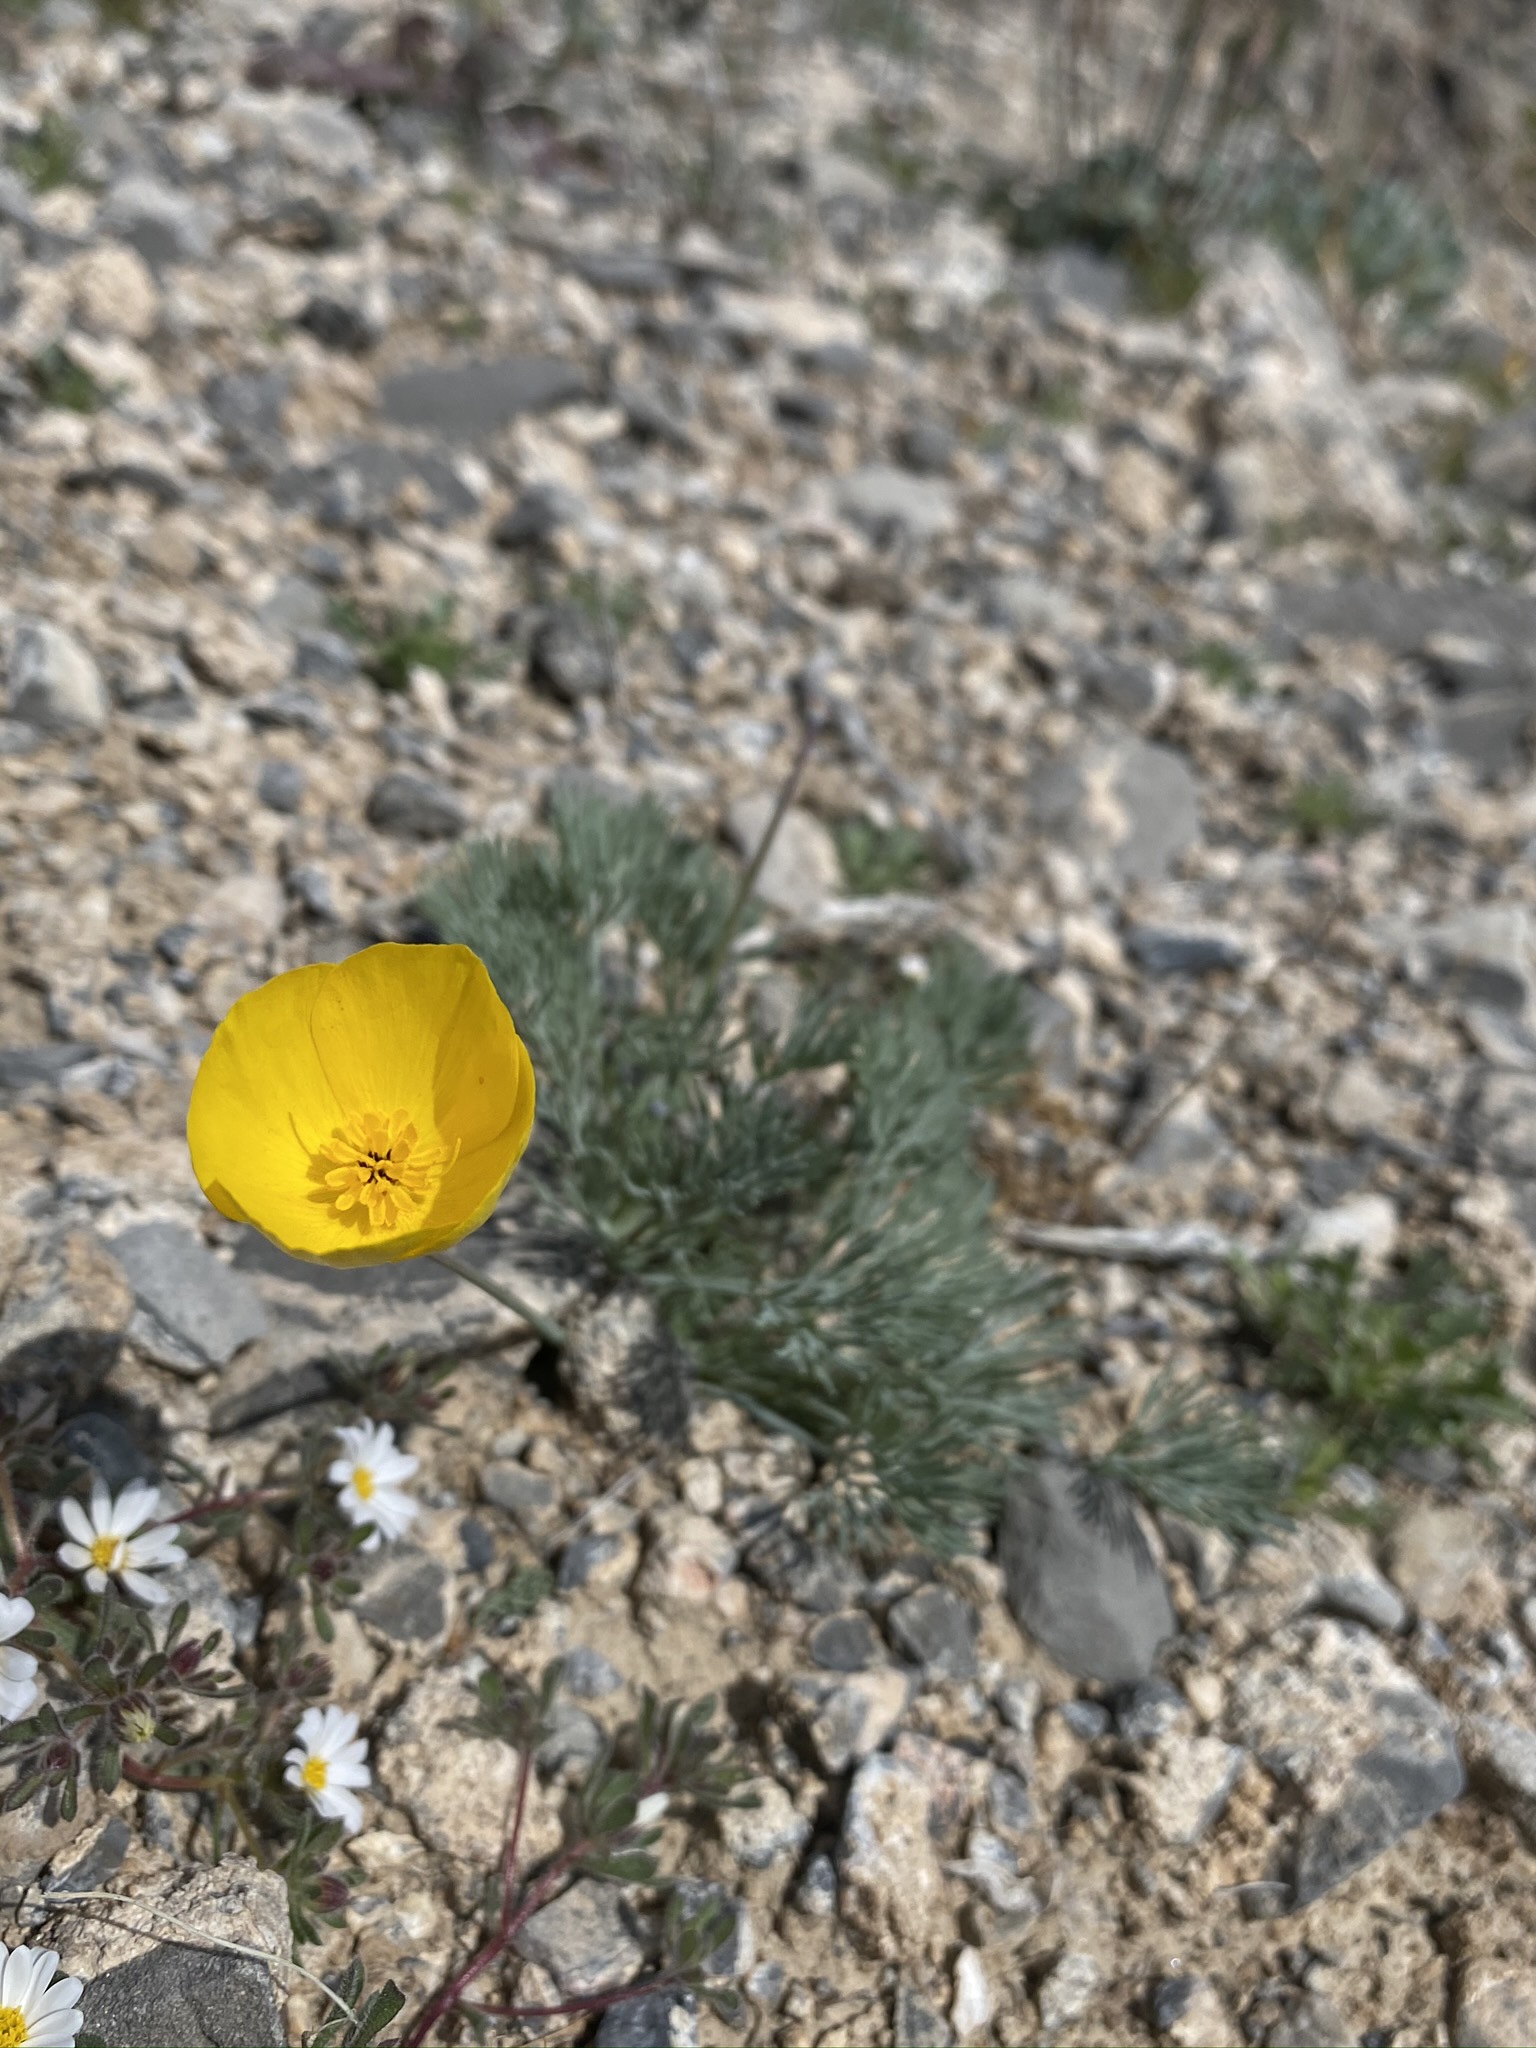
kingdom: Plantae
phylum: Tracheophyta
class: Magnoliopsida
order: Ranunculales
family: Papaveraceae
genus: Eschscholzia
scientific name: Eschscholzia glyptosperma
